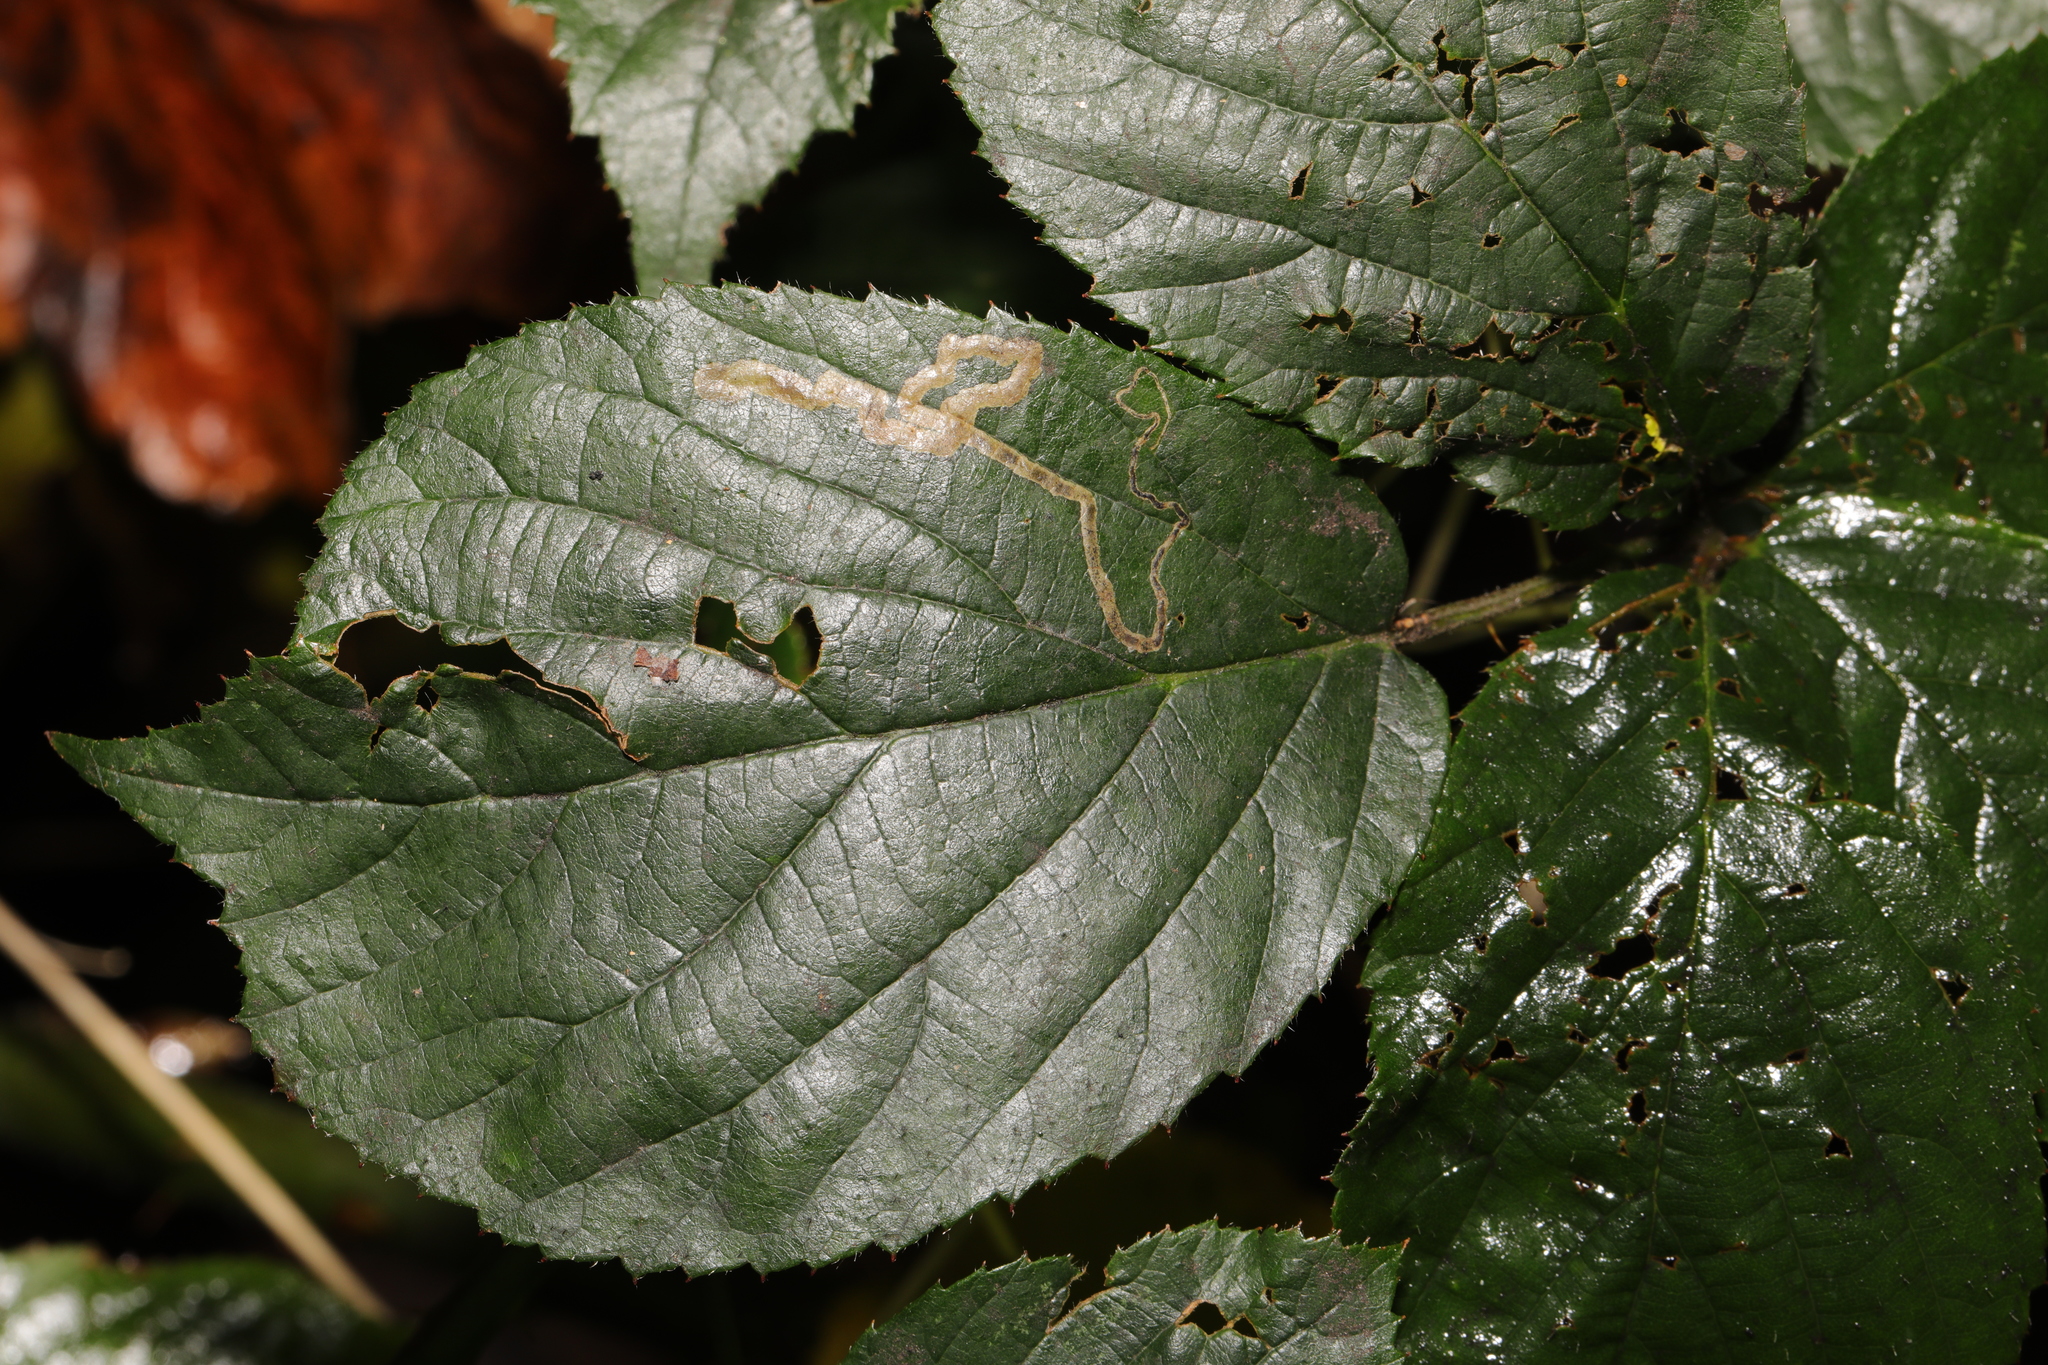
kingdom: Animalia
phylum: Arthropoda
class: Insecta
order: Lepidoptera
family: Nepticulidae
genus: Stigmella
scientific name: Stigmella aurella
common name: Golden pigmy
